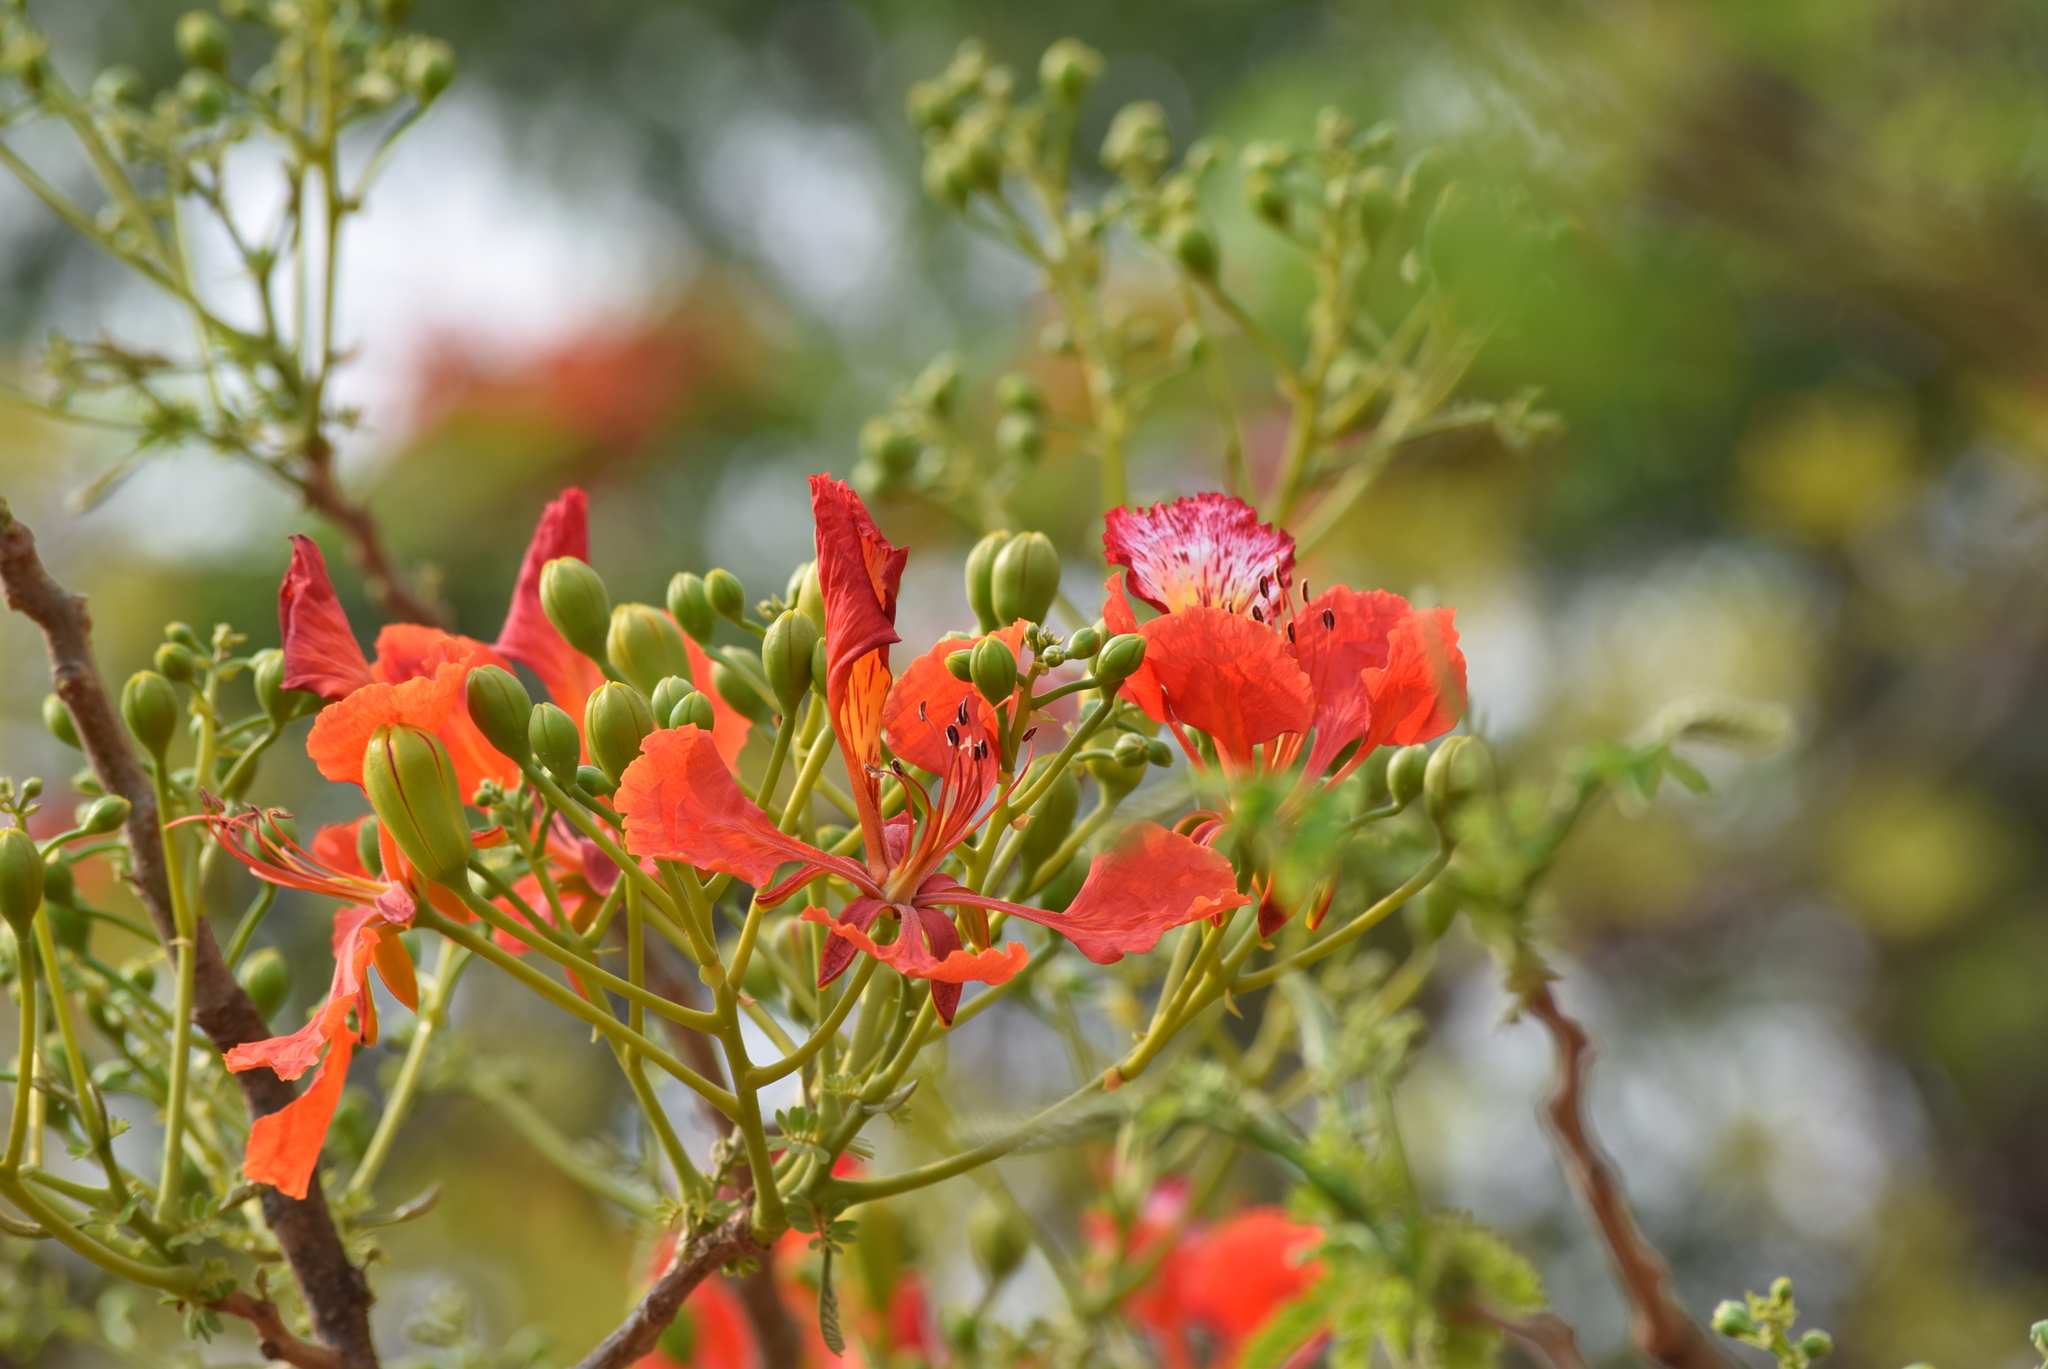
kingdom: Plantae
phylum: Tracheophyta
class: Magnoliopsida
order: Fabales
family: Fabaceae
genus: Delonix
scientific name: Delonix regia
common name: Royal poinciana
